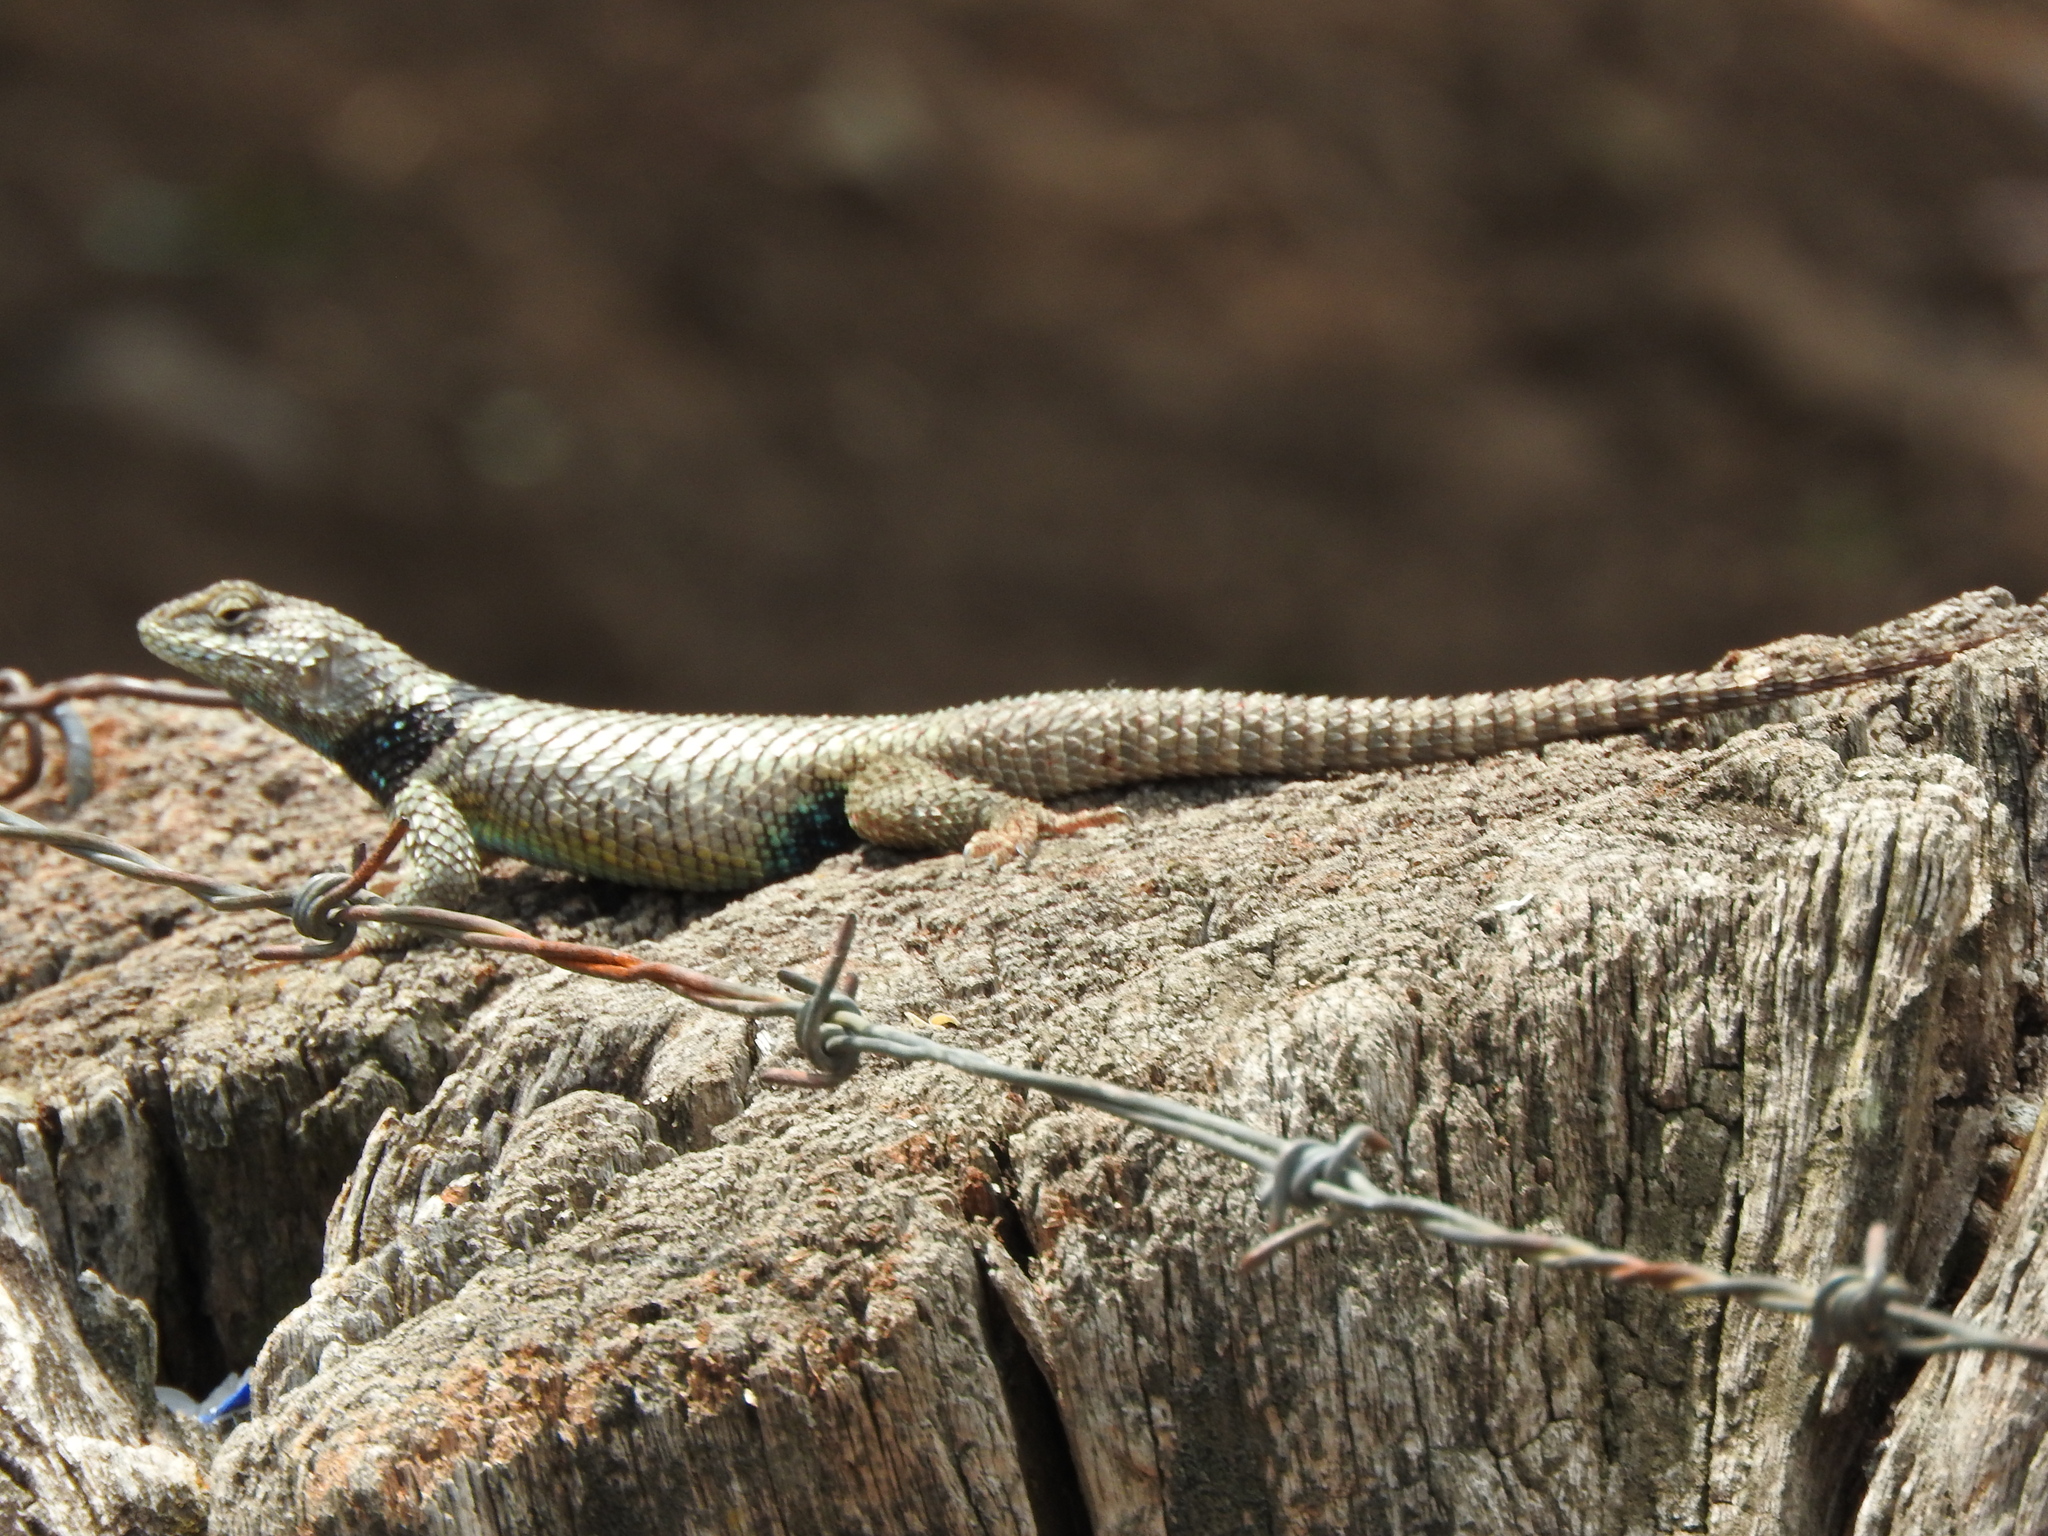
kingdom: Animalia
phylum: Chordata
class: Squamata
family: Phrynosomatidae
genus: Sceloporus
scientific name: Sceloporus torquatus
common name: Central plateau torquate lizard [melanogaster]
